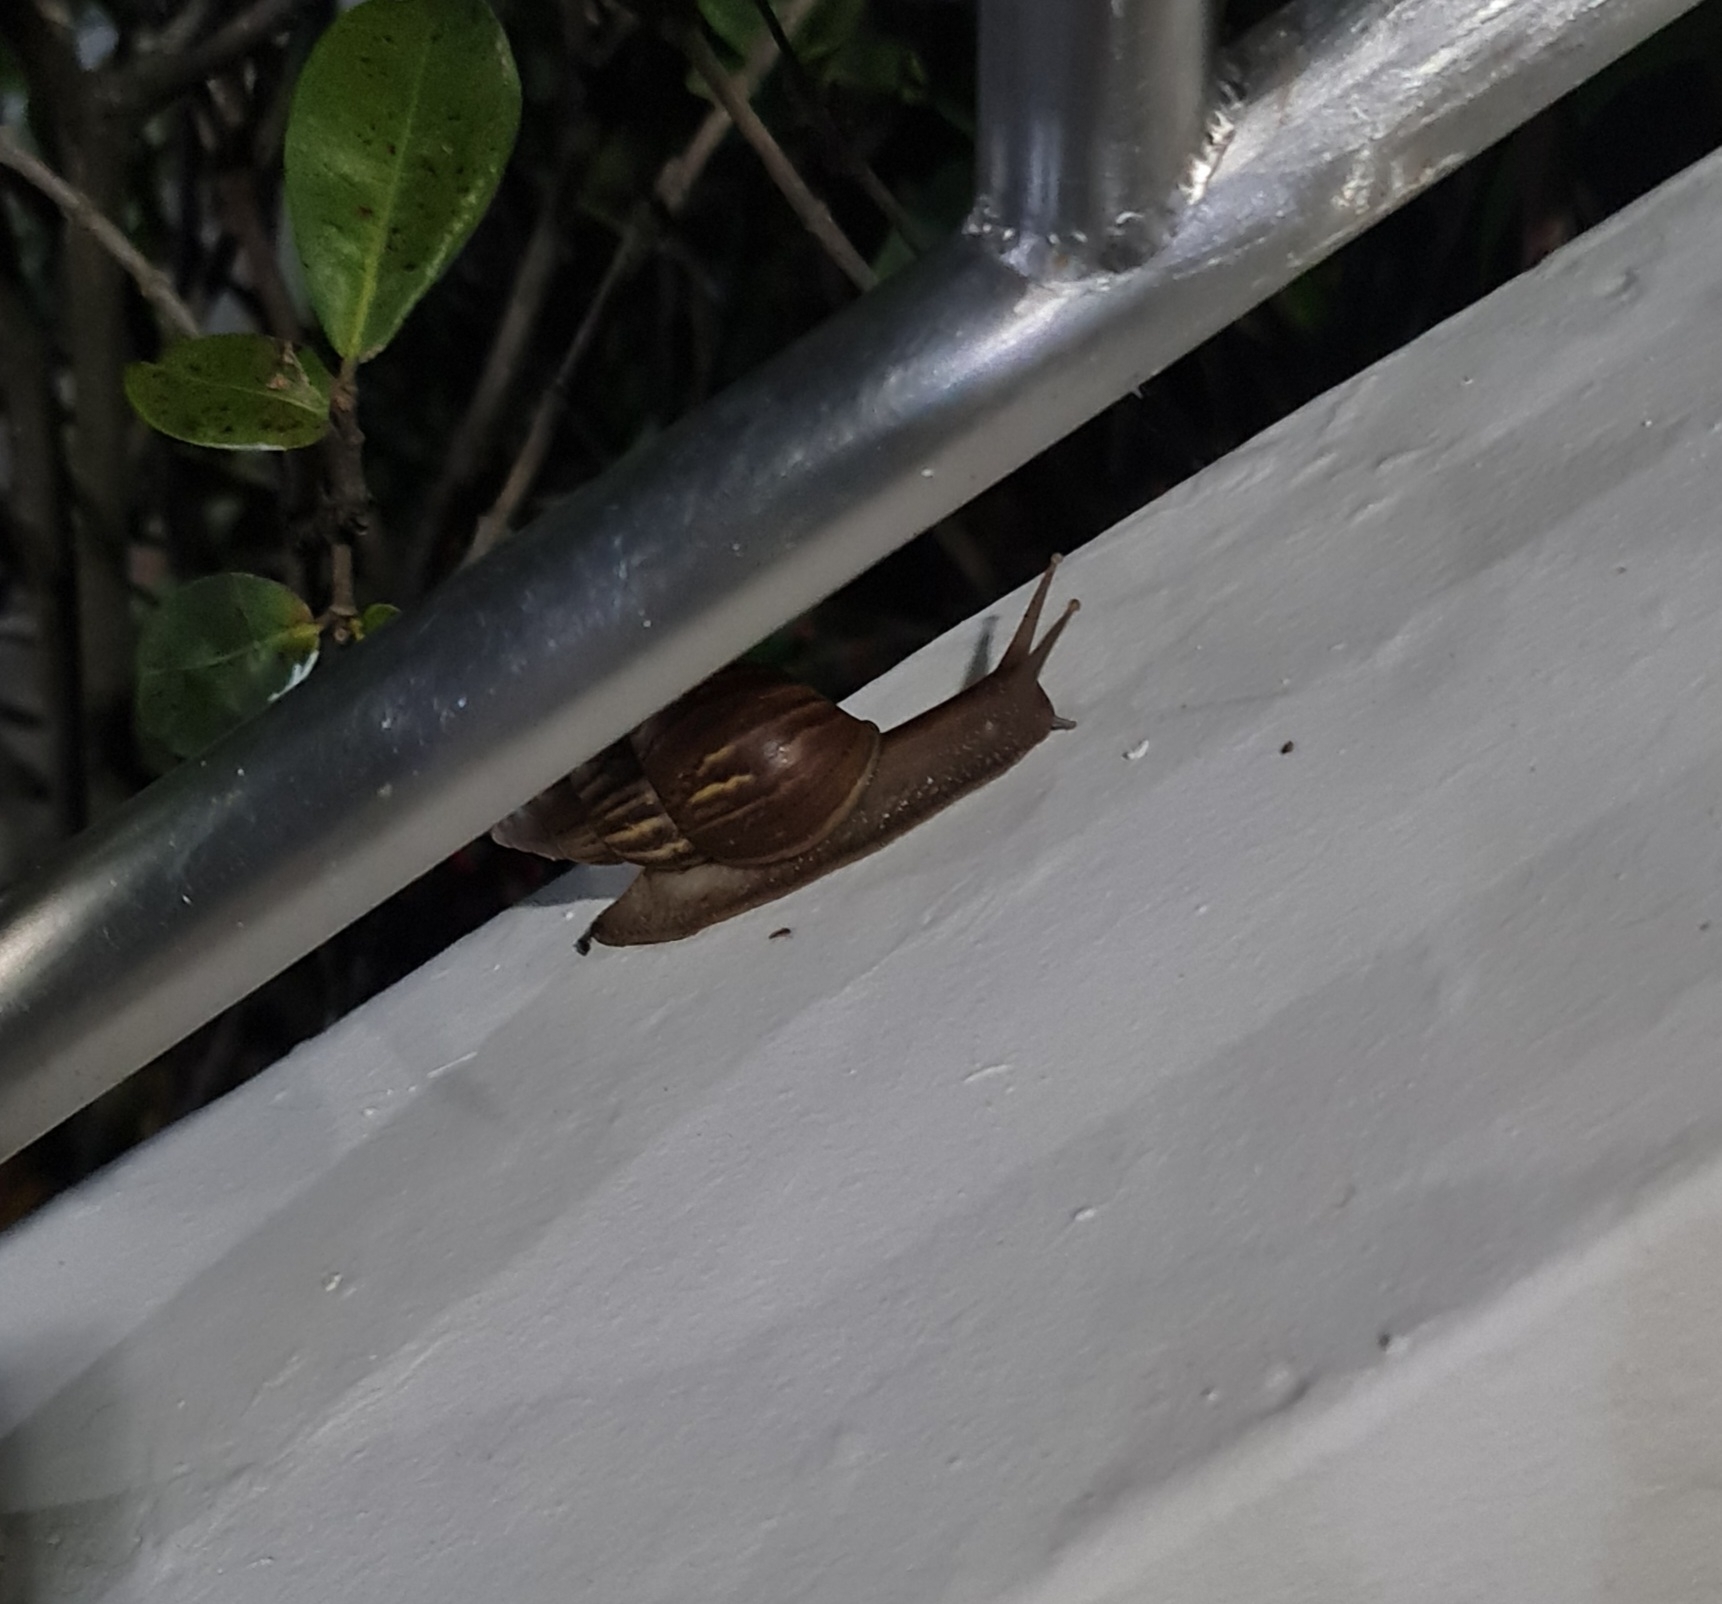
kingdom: Animalia
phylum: Mollusca
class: Gastropoda
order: Stylommatophora
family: Achatinidae
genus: Lissachatina
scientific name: Lissachatina fulica
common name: Giant african snail
